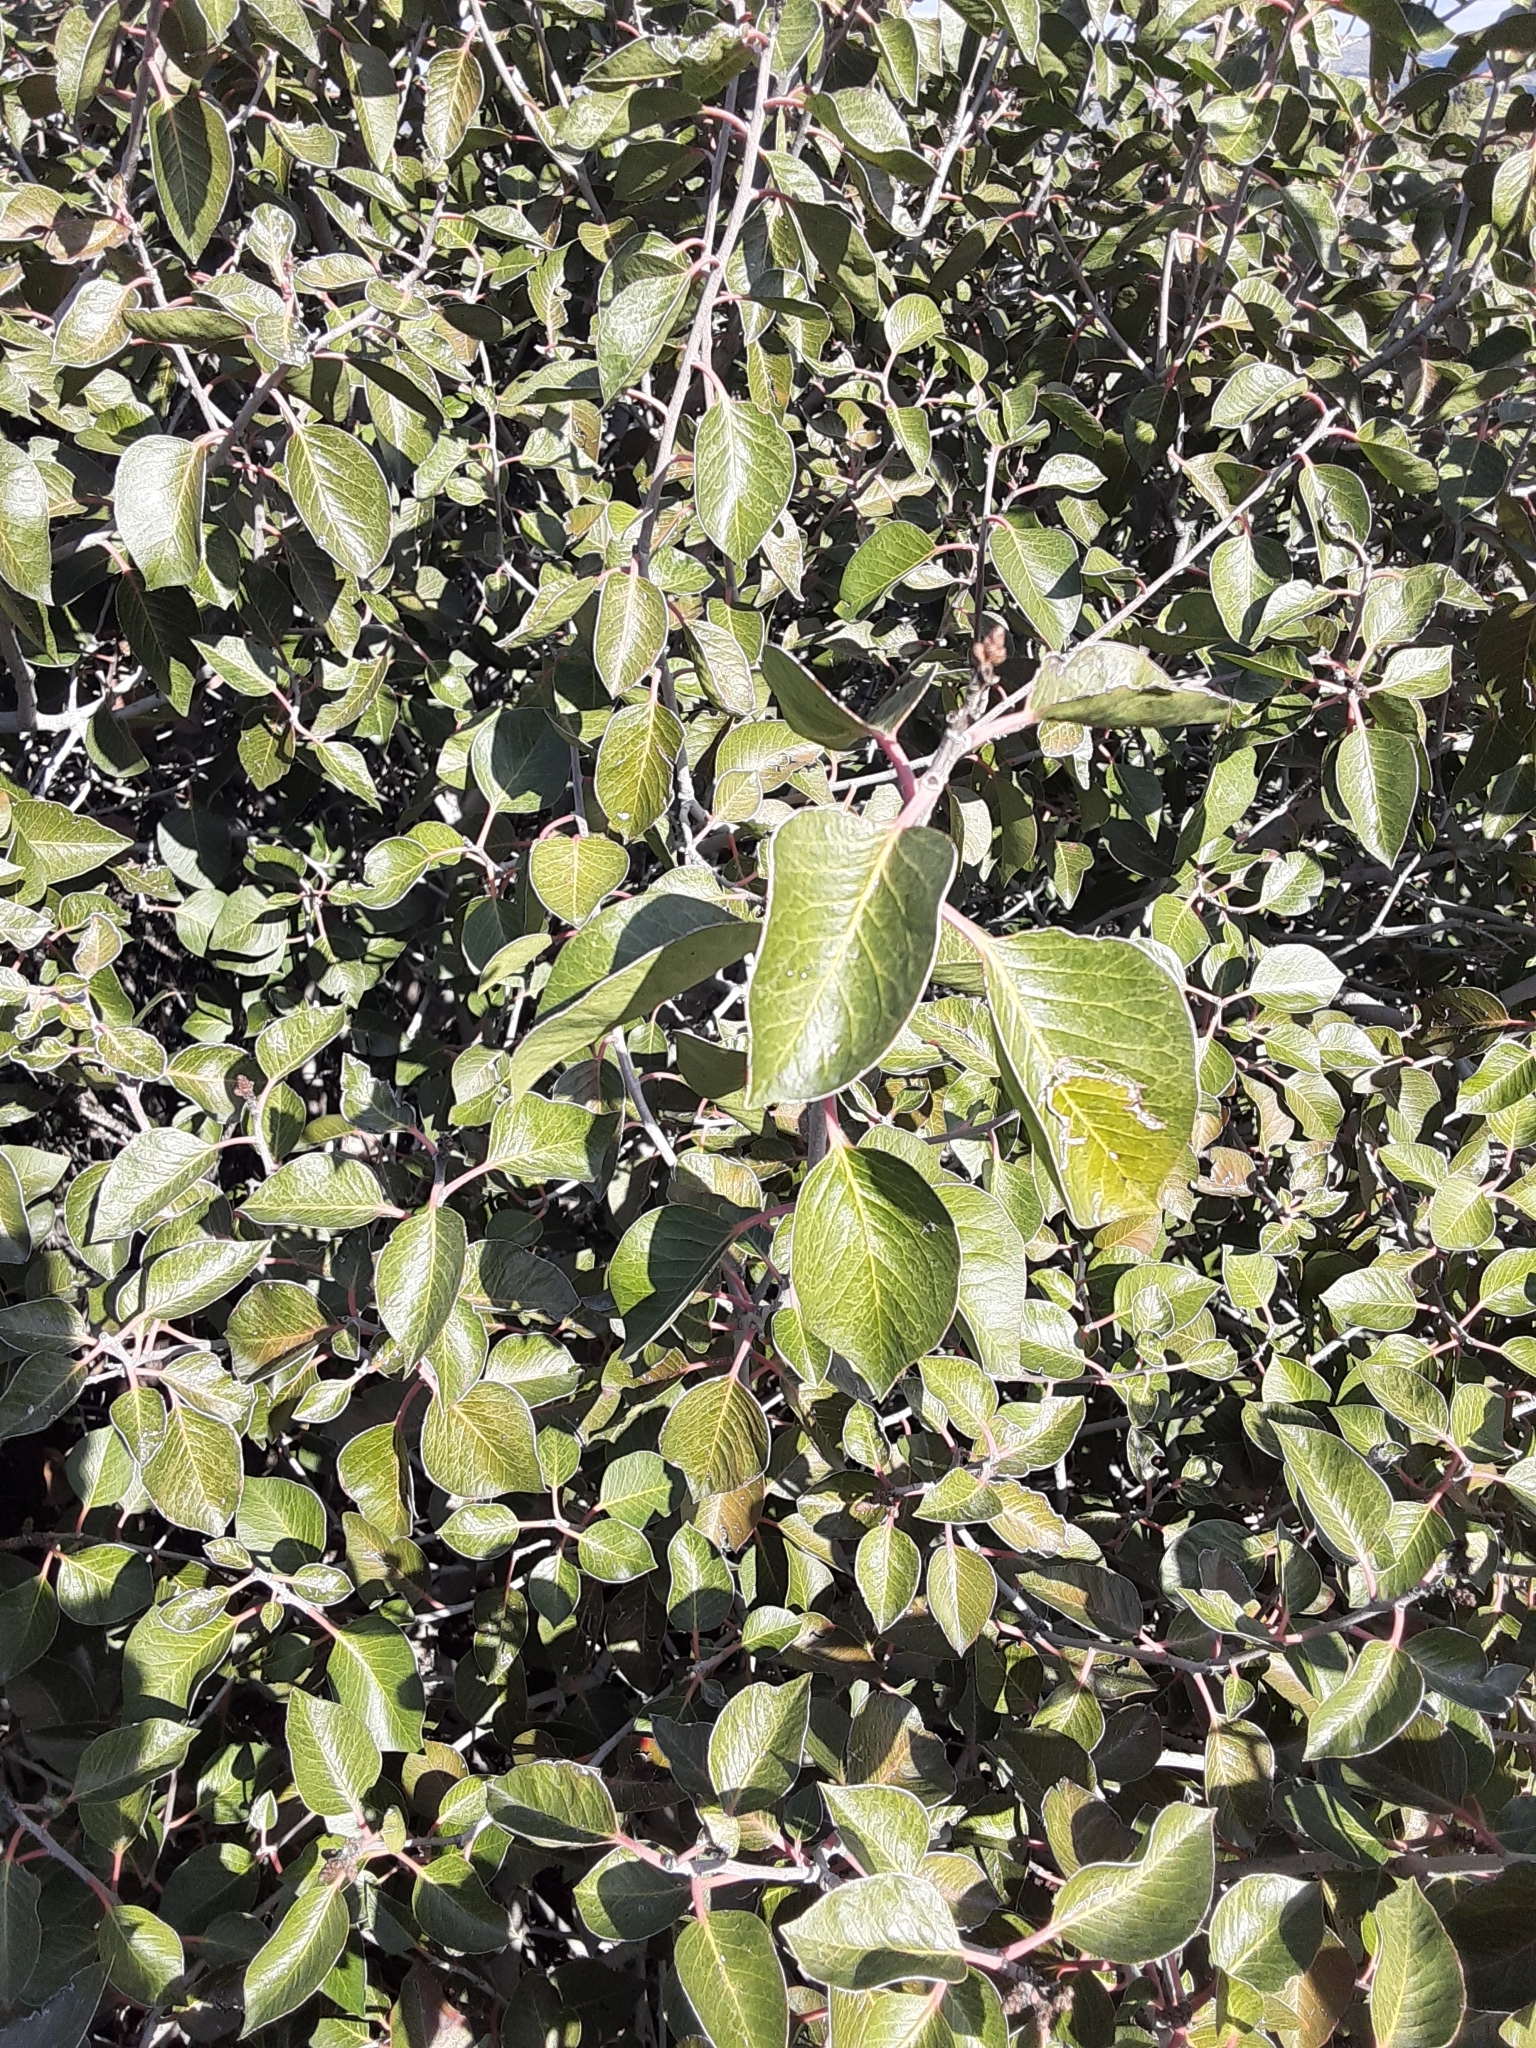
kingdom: Plantae
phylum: Tracheophyta
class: Magnoliopsida
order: Sapindales
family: Anacardiaceae
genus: Rhus
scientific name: Rhus ovata
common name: Sugar sumac
